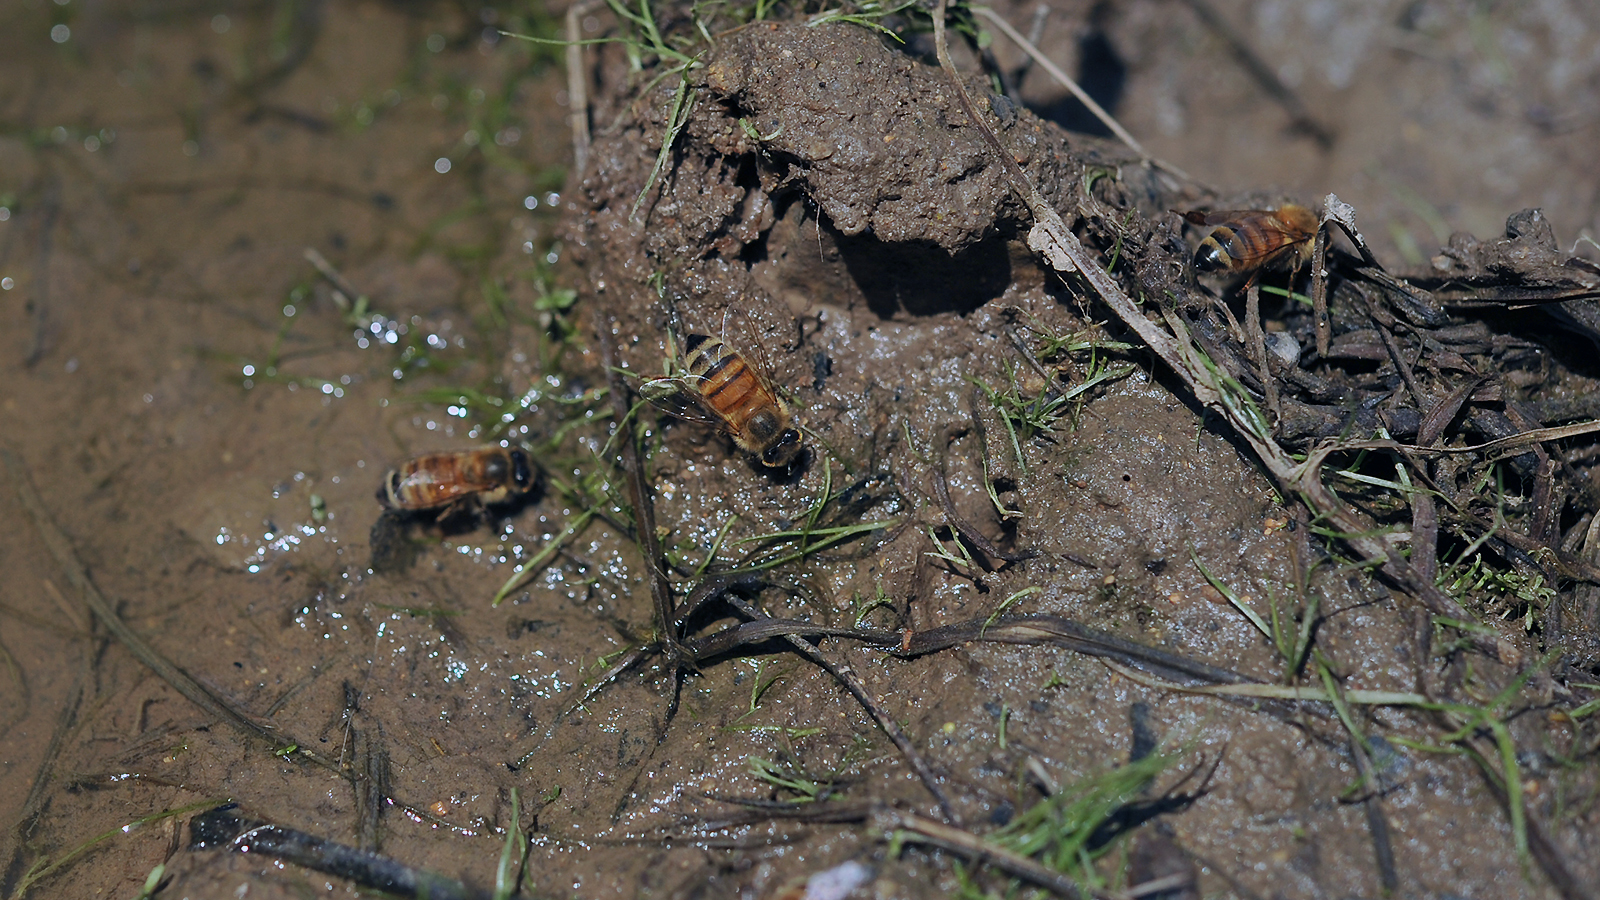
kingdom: Animalia
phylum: Arthropoda
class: Insecta
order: Hymenoptera
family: Apidae
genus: Apis
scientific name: Apis mellifera
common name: Honey bee
